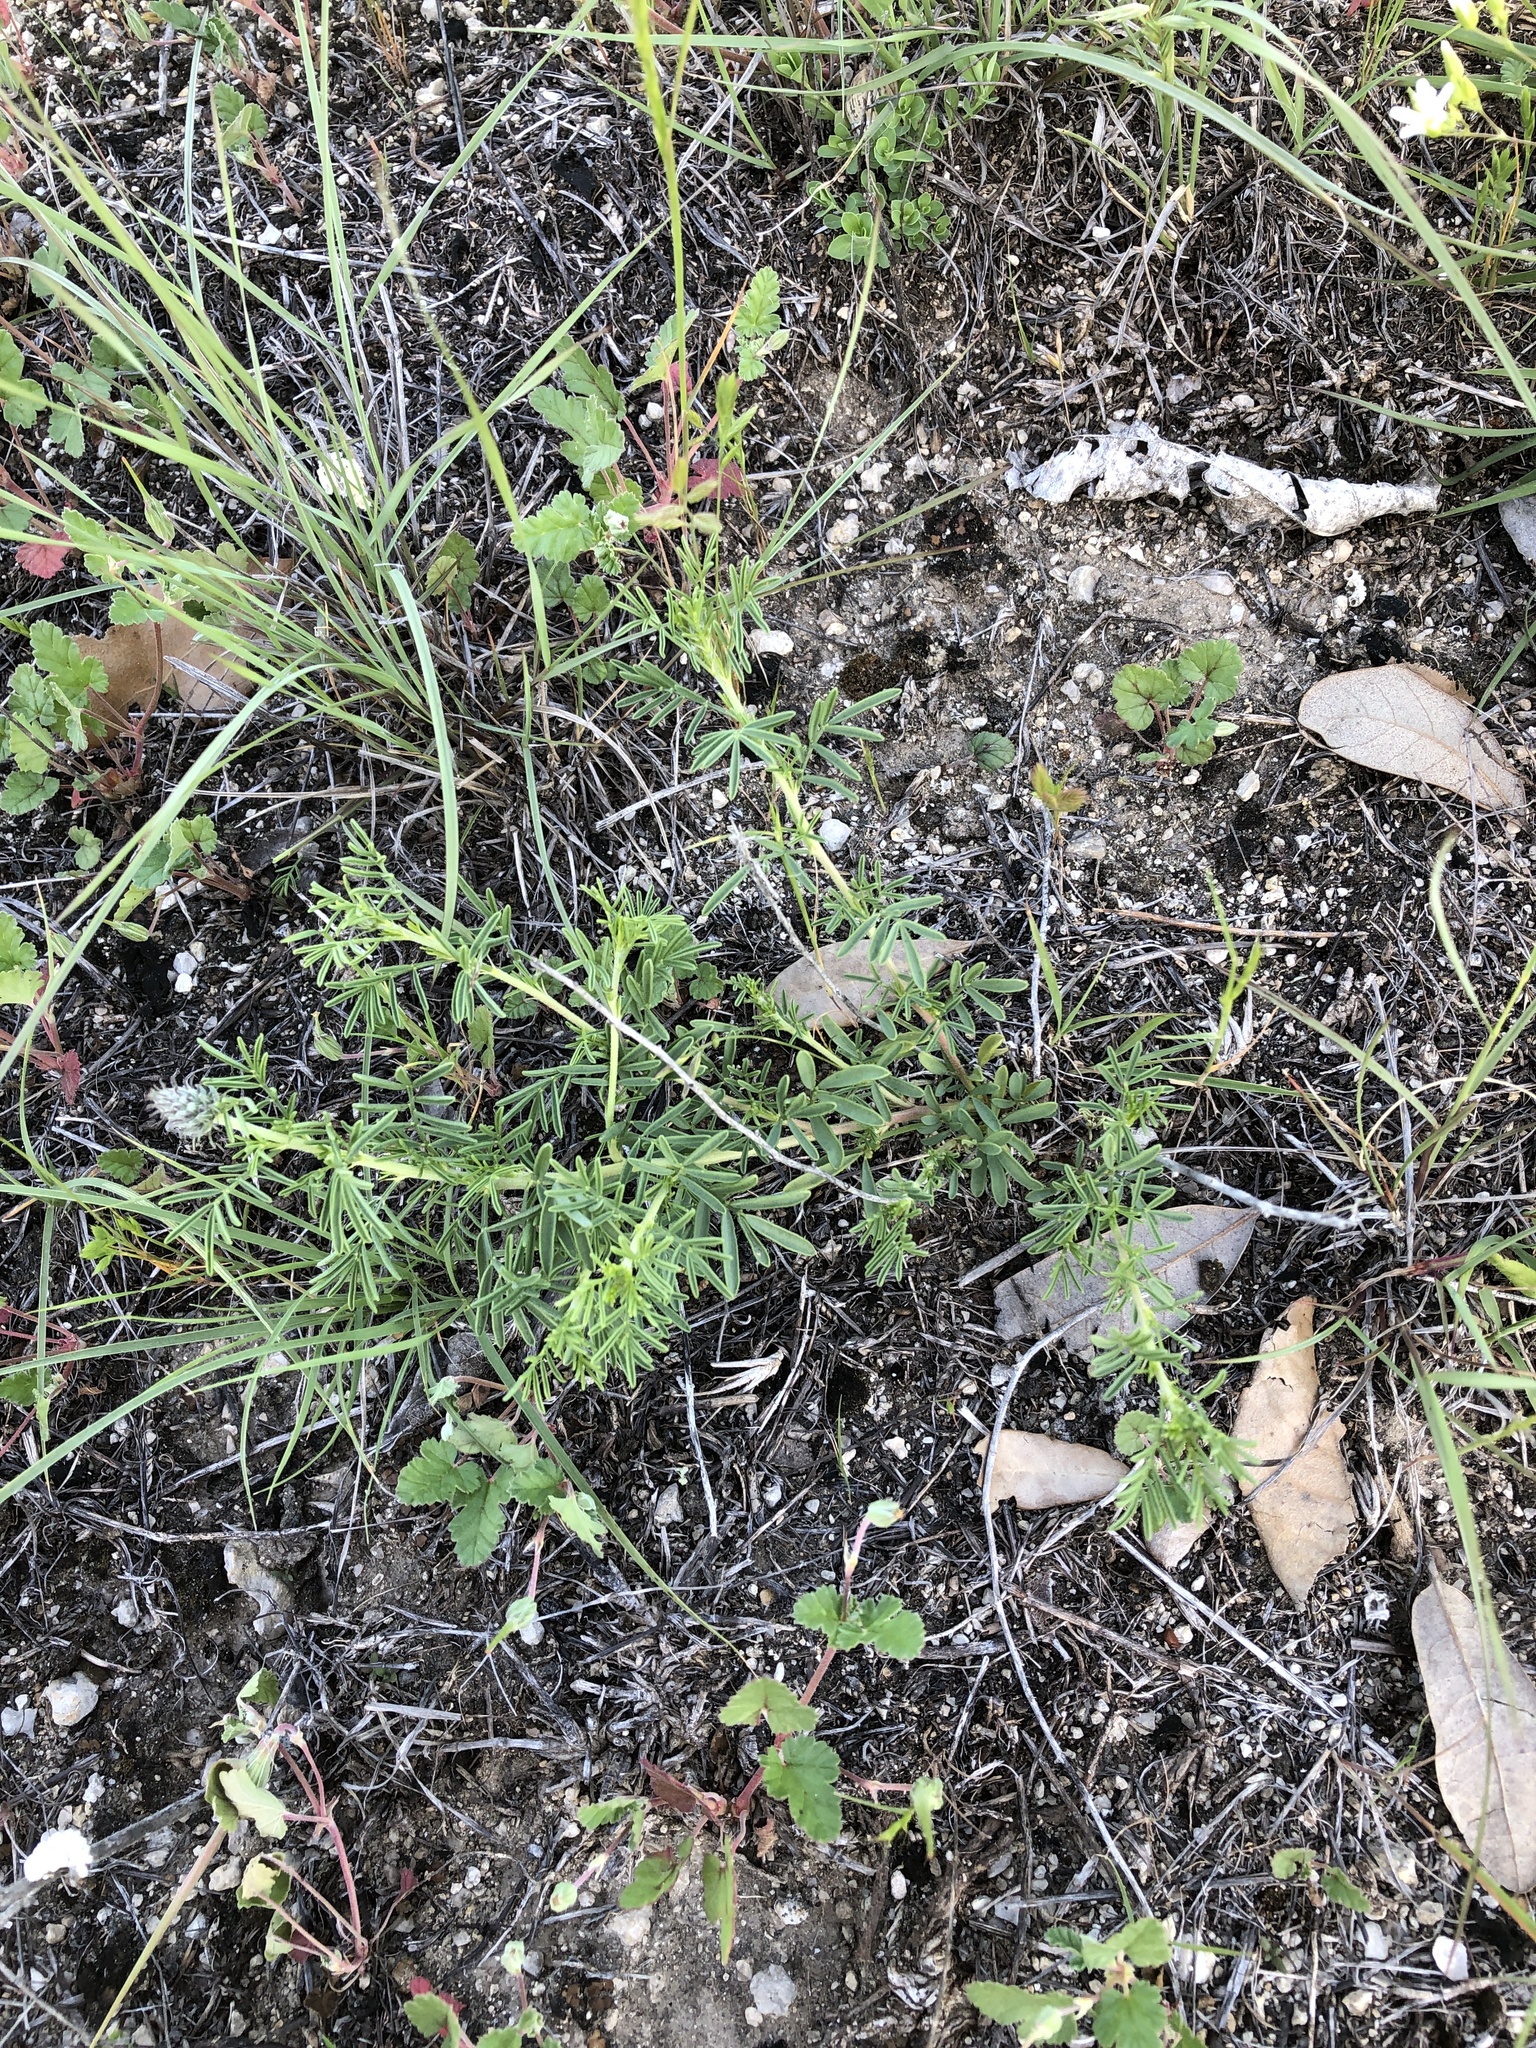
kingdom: Plantae
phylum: Tracheophyta
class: Magnoliopsida
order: Fabales
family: Fabaceae
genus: Dalea
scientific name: Dalea reverchonii
